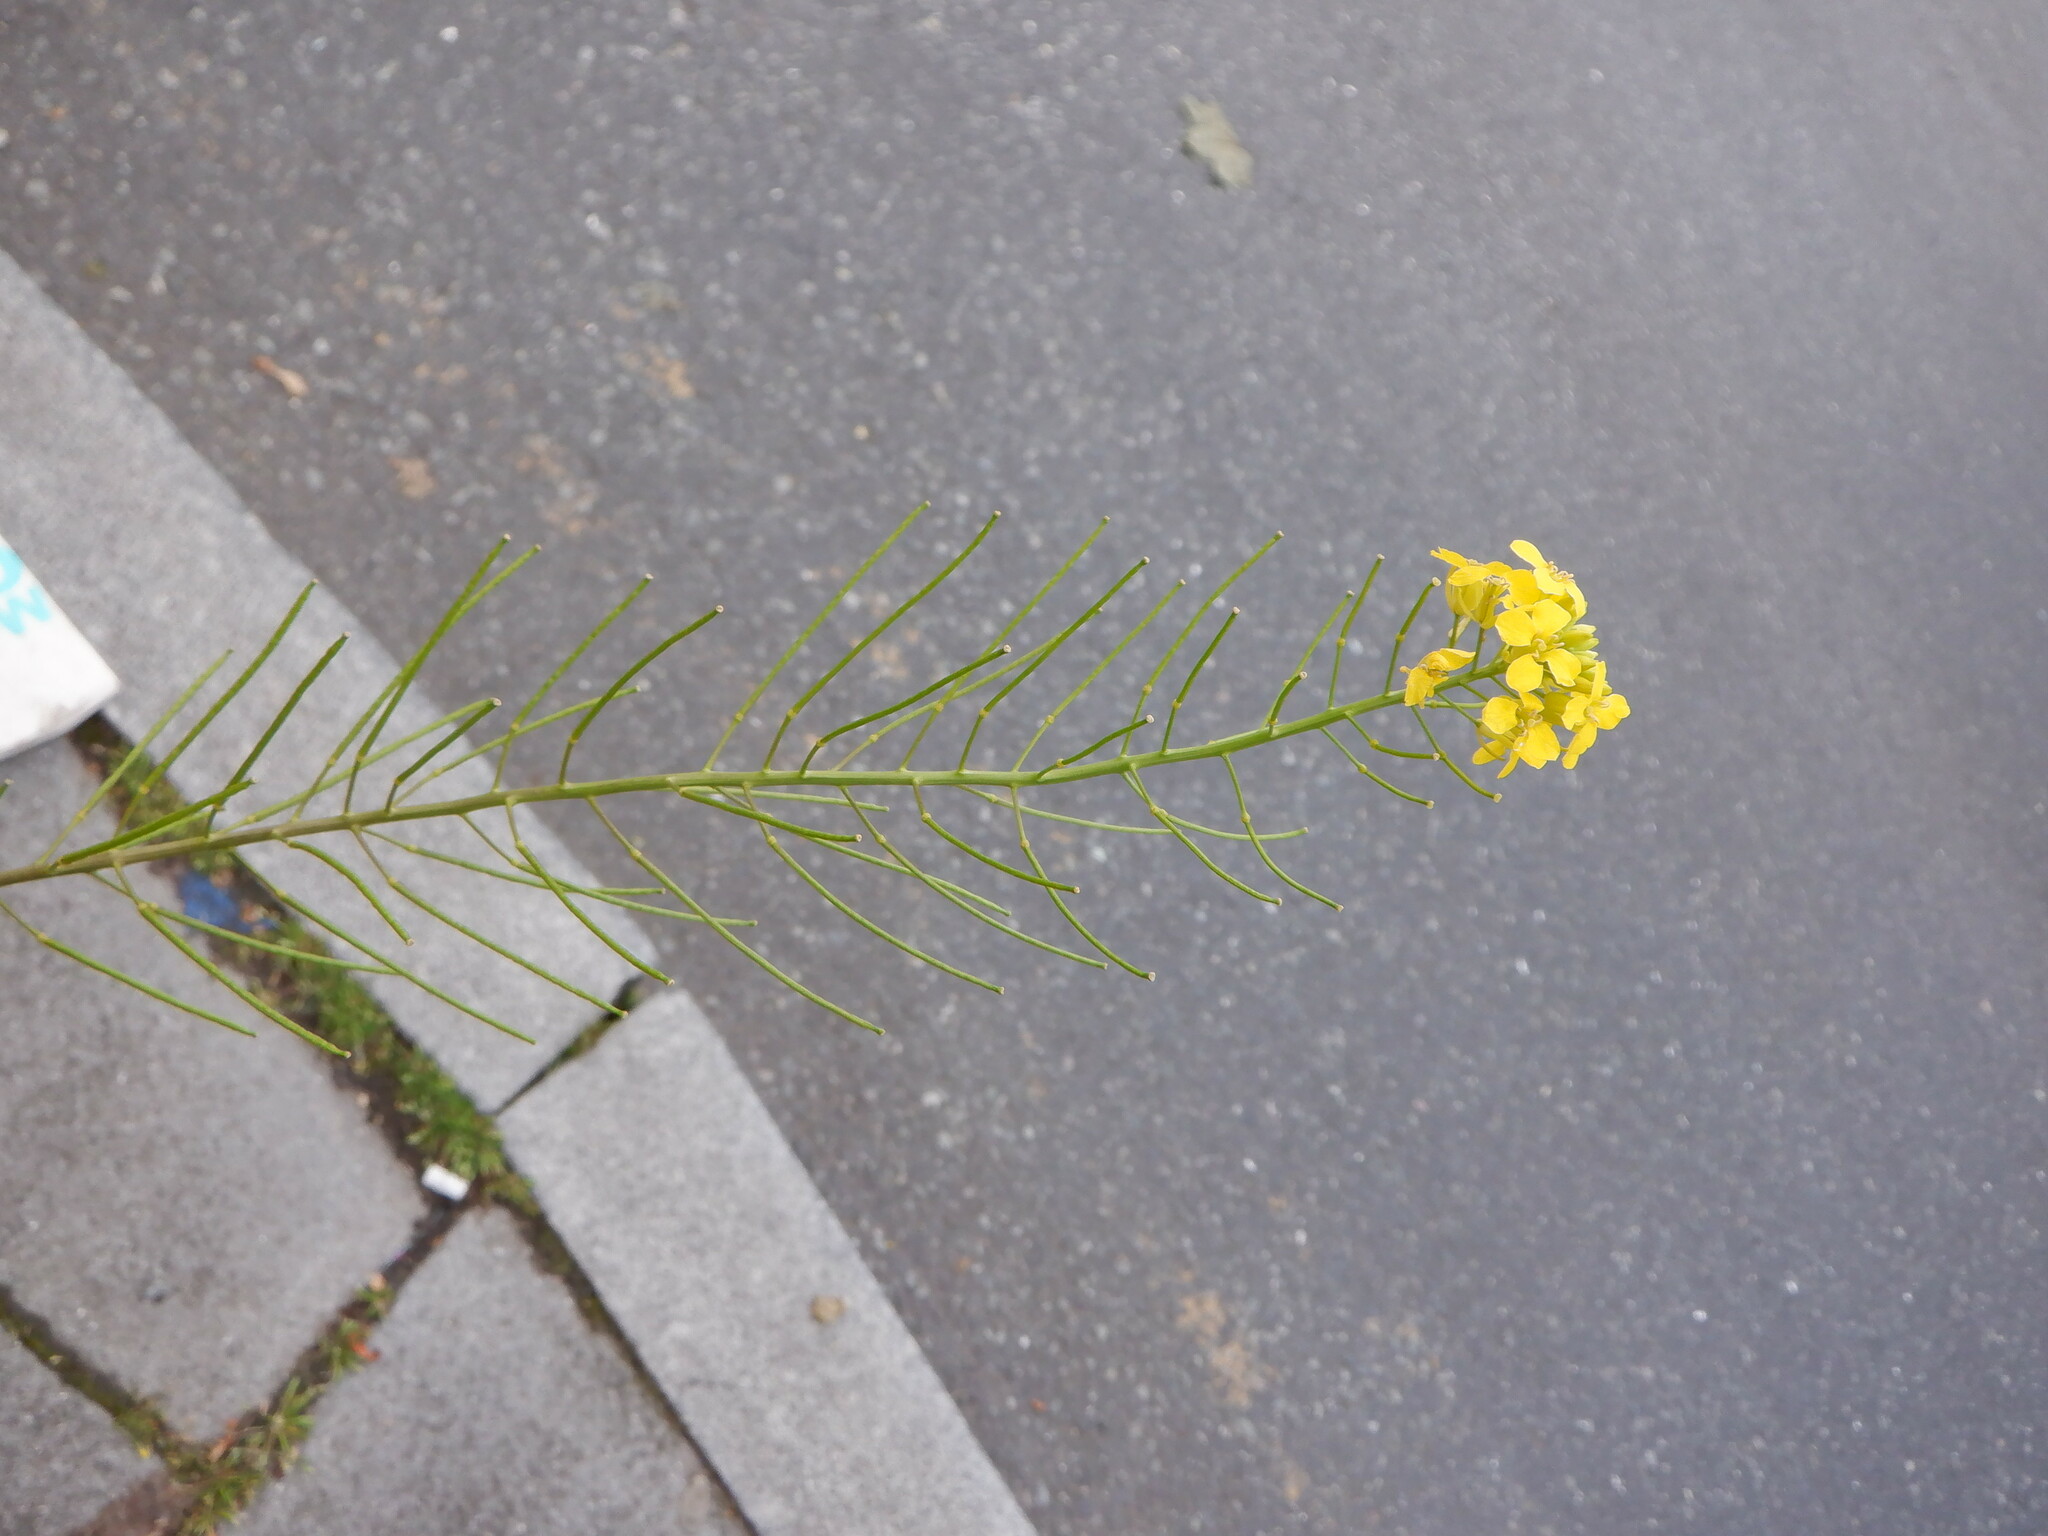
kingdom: Plantae
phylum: Tracheophyta
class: Magnoliopsida
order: Brassicales
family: Brassicaceae
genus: Sisymbrium
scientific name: Sisymbrium loeselii
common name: False london-rocket
